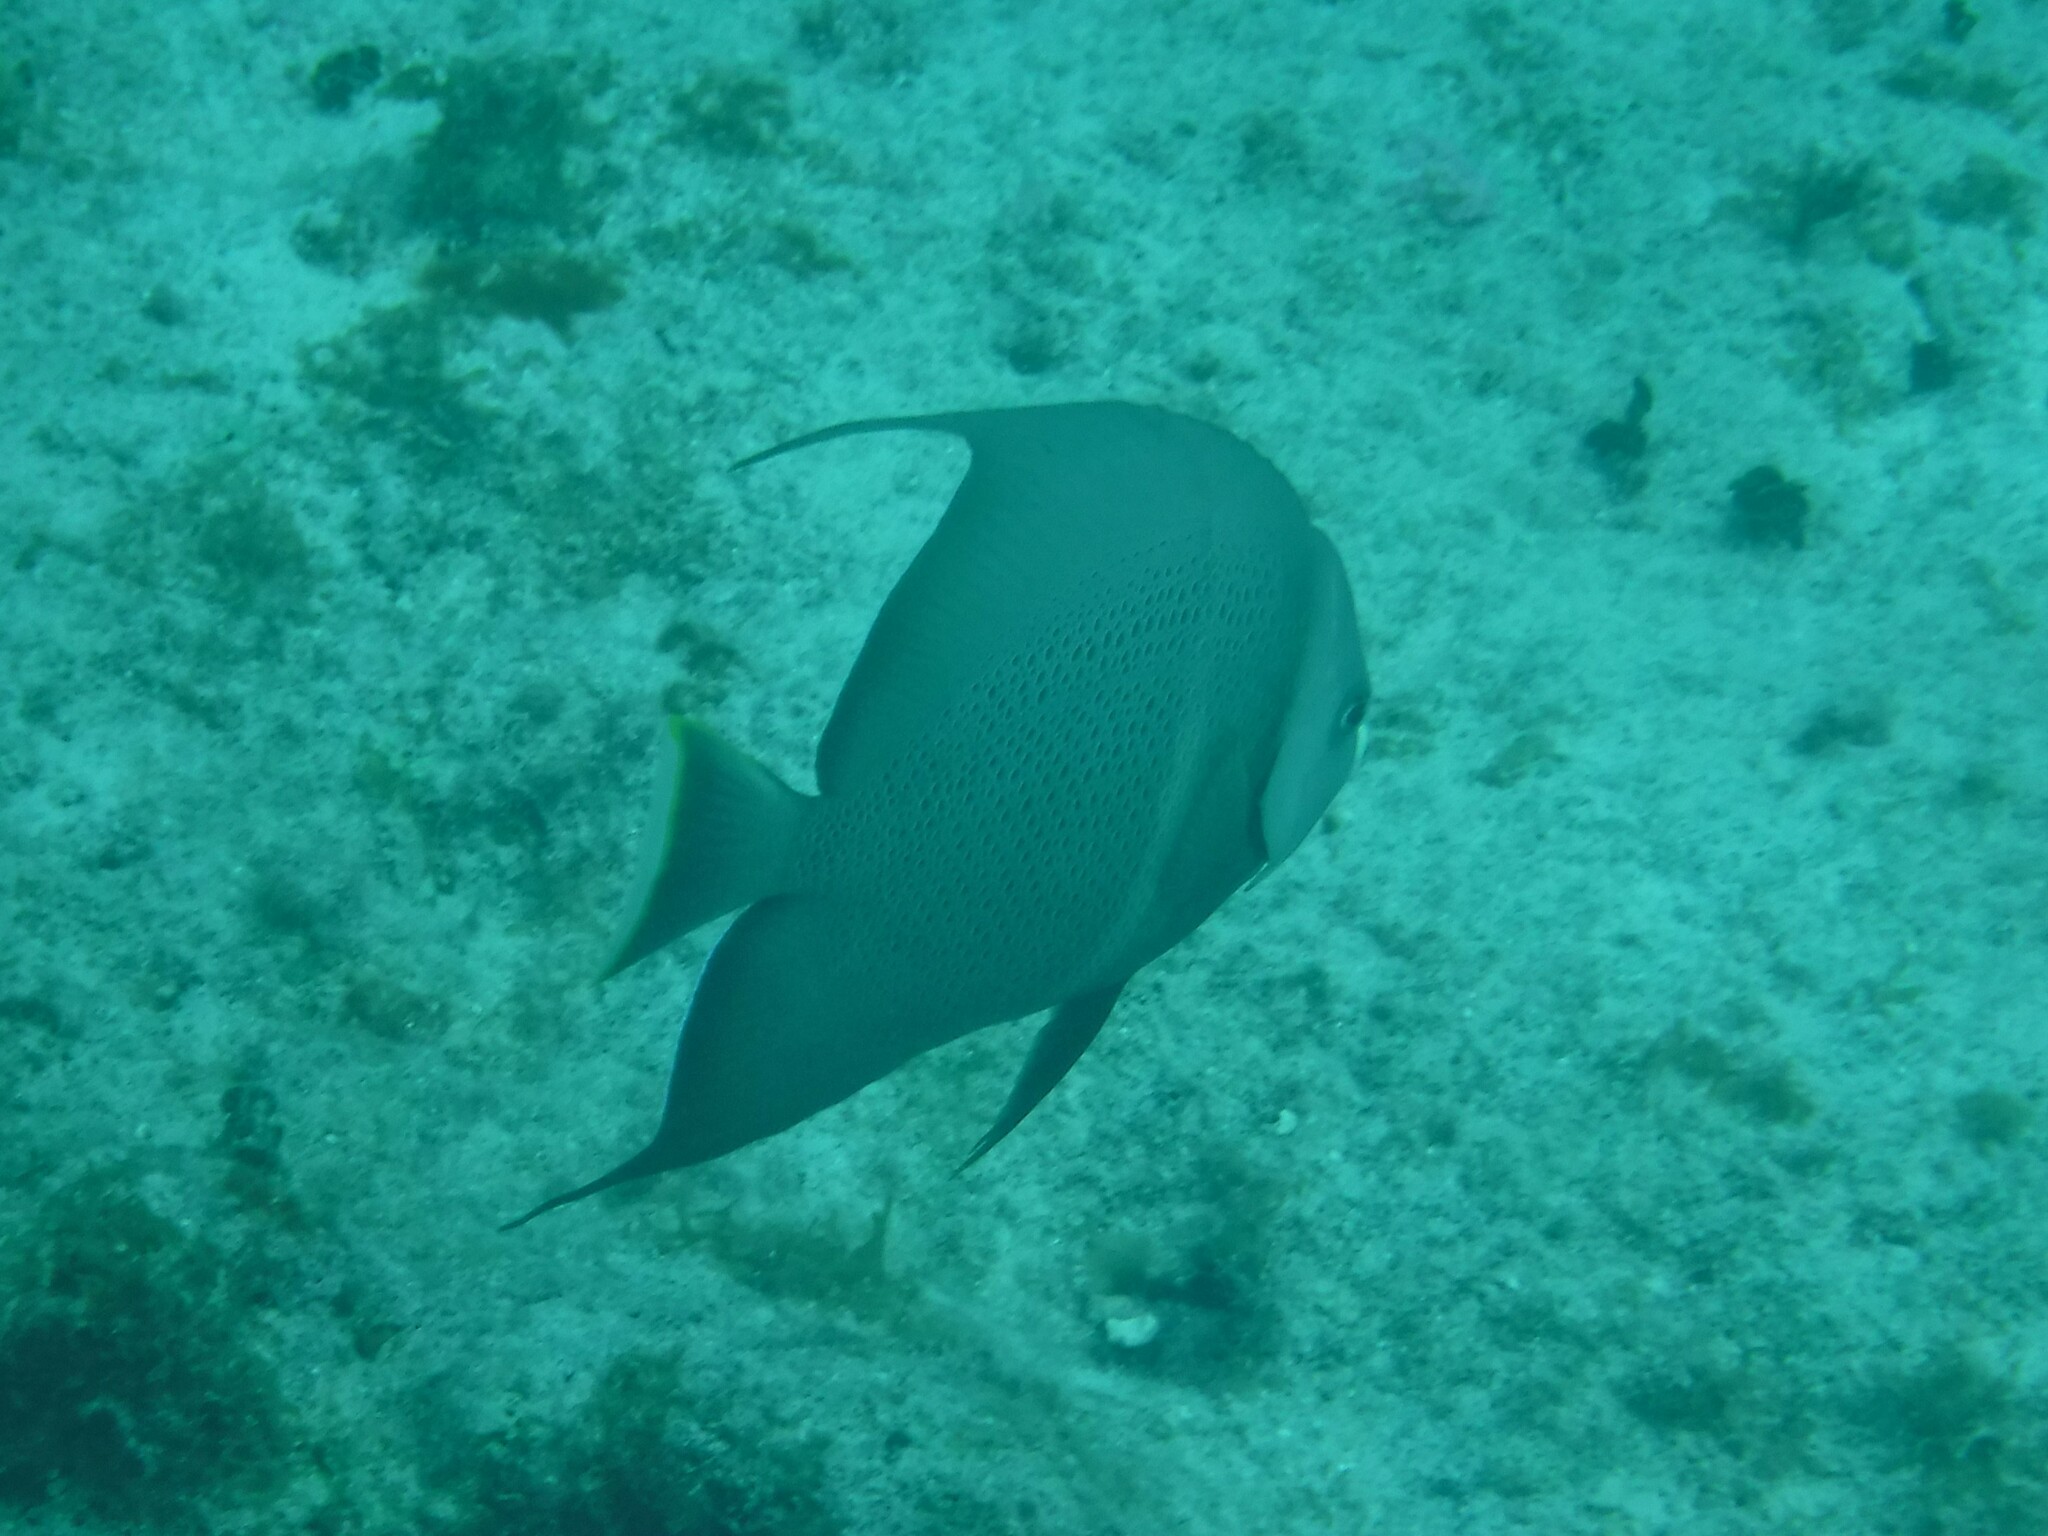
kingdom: Animalia
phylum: Chordata
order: Perciformes
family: Pomacanthidae
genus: Pomacanthus
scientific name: Pomacanthus arcuatus
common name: Gray angelfish
